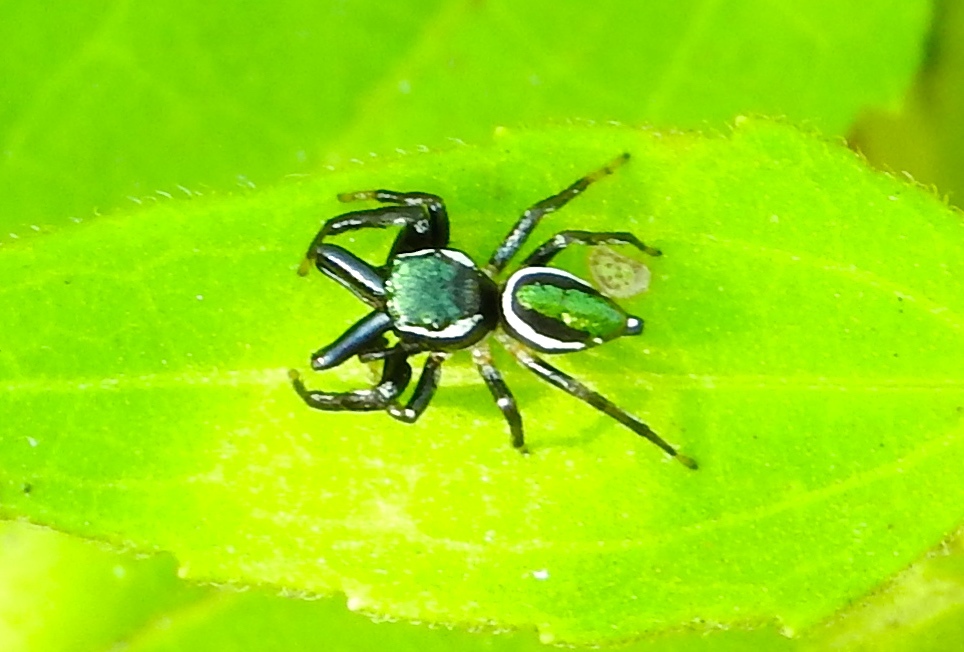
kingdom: Animalia
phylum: Arthropoda
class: Arachnida
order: Araneae
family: Salticidae
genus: Messua
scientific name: Messua limbata
